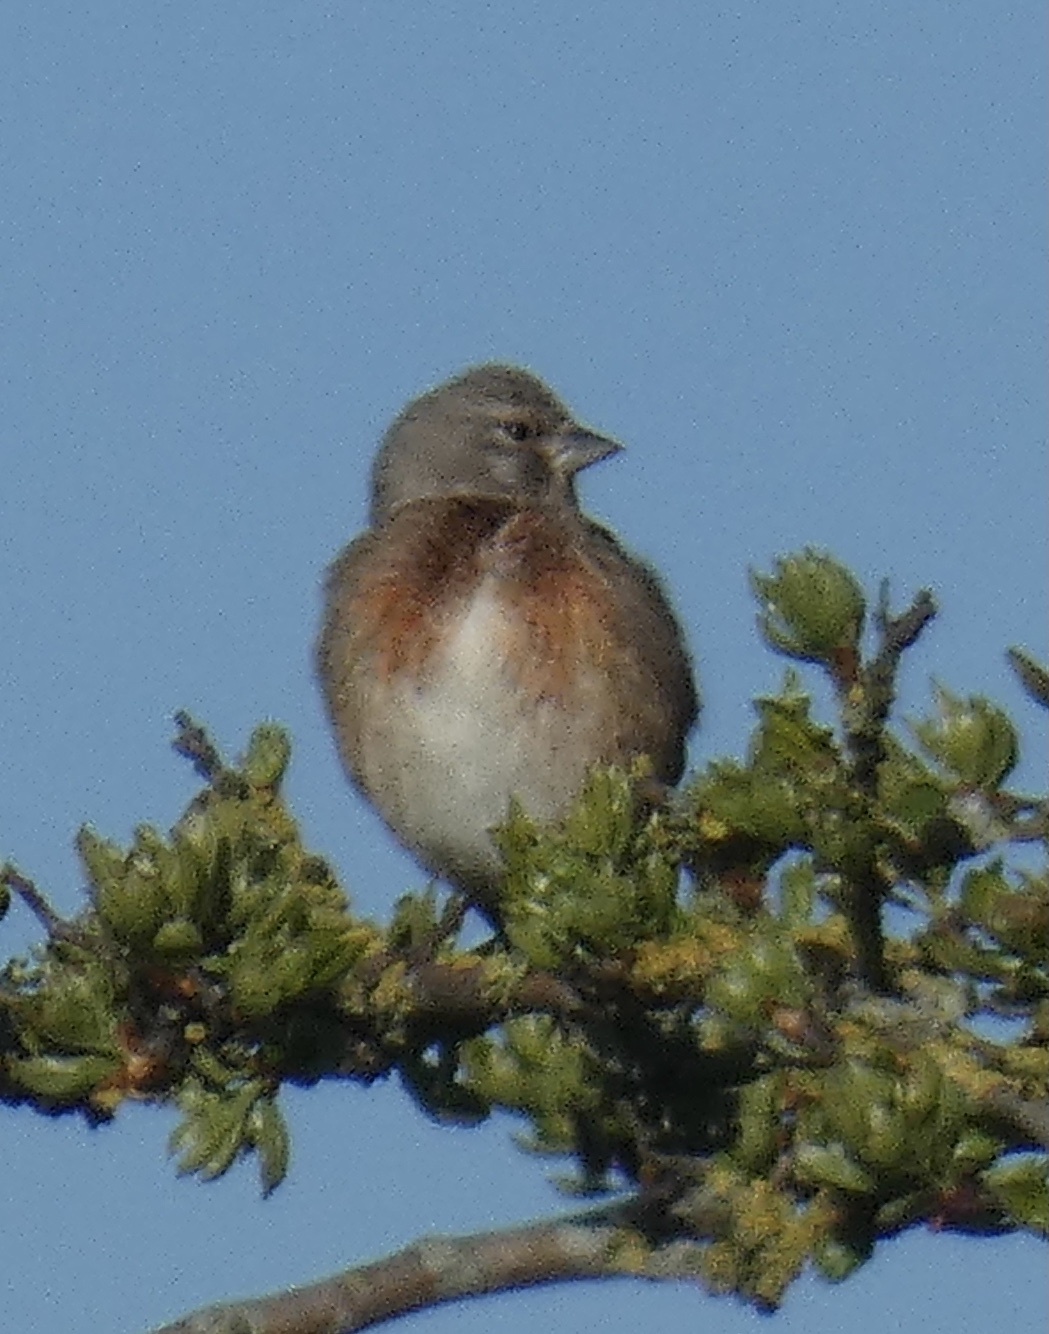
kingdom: Animalia
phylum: Chordata
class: Aves
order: Passeriformes
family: Fringillidae
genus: Linaria
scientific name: Linaria cannabina
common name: Common linnet
